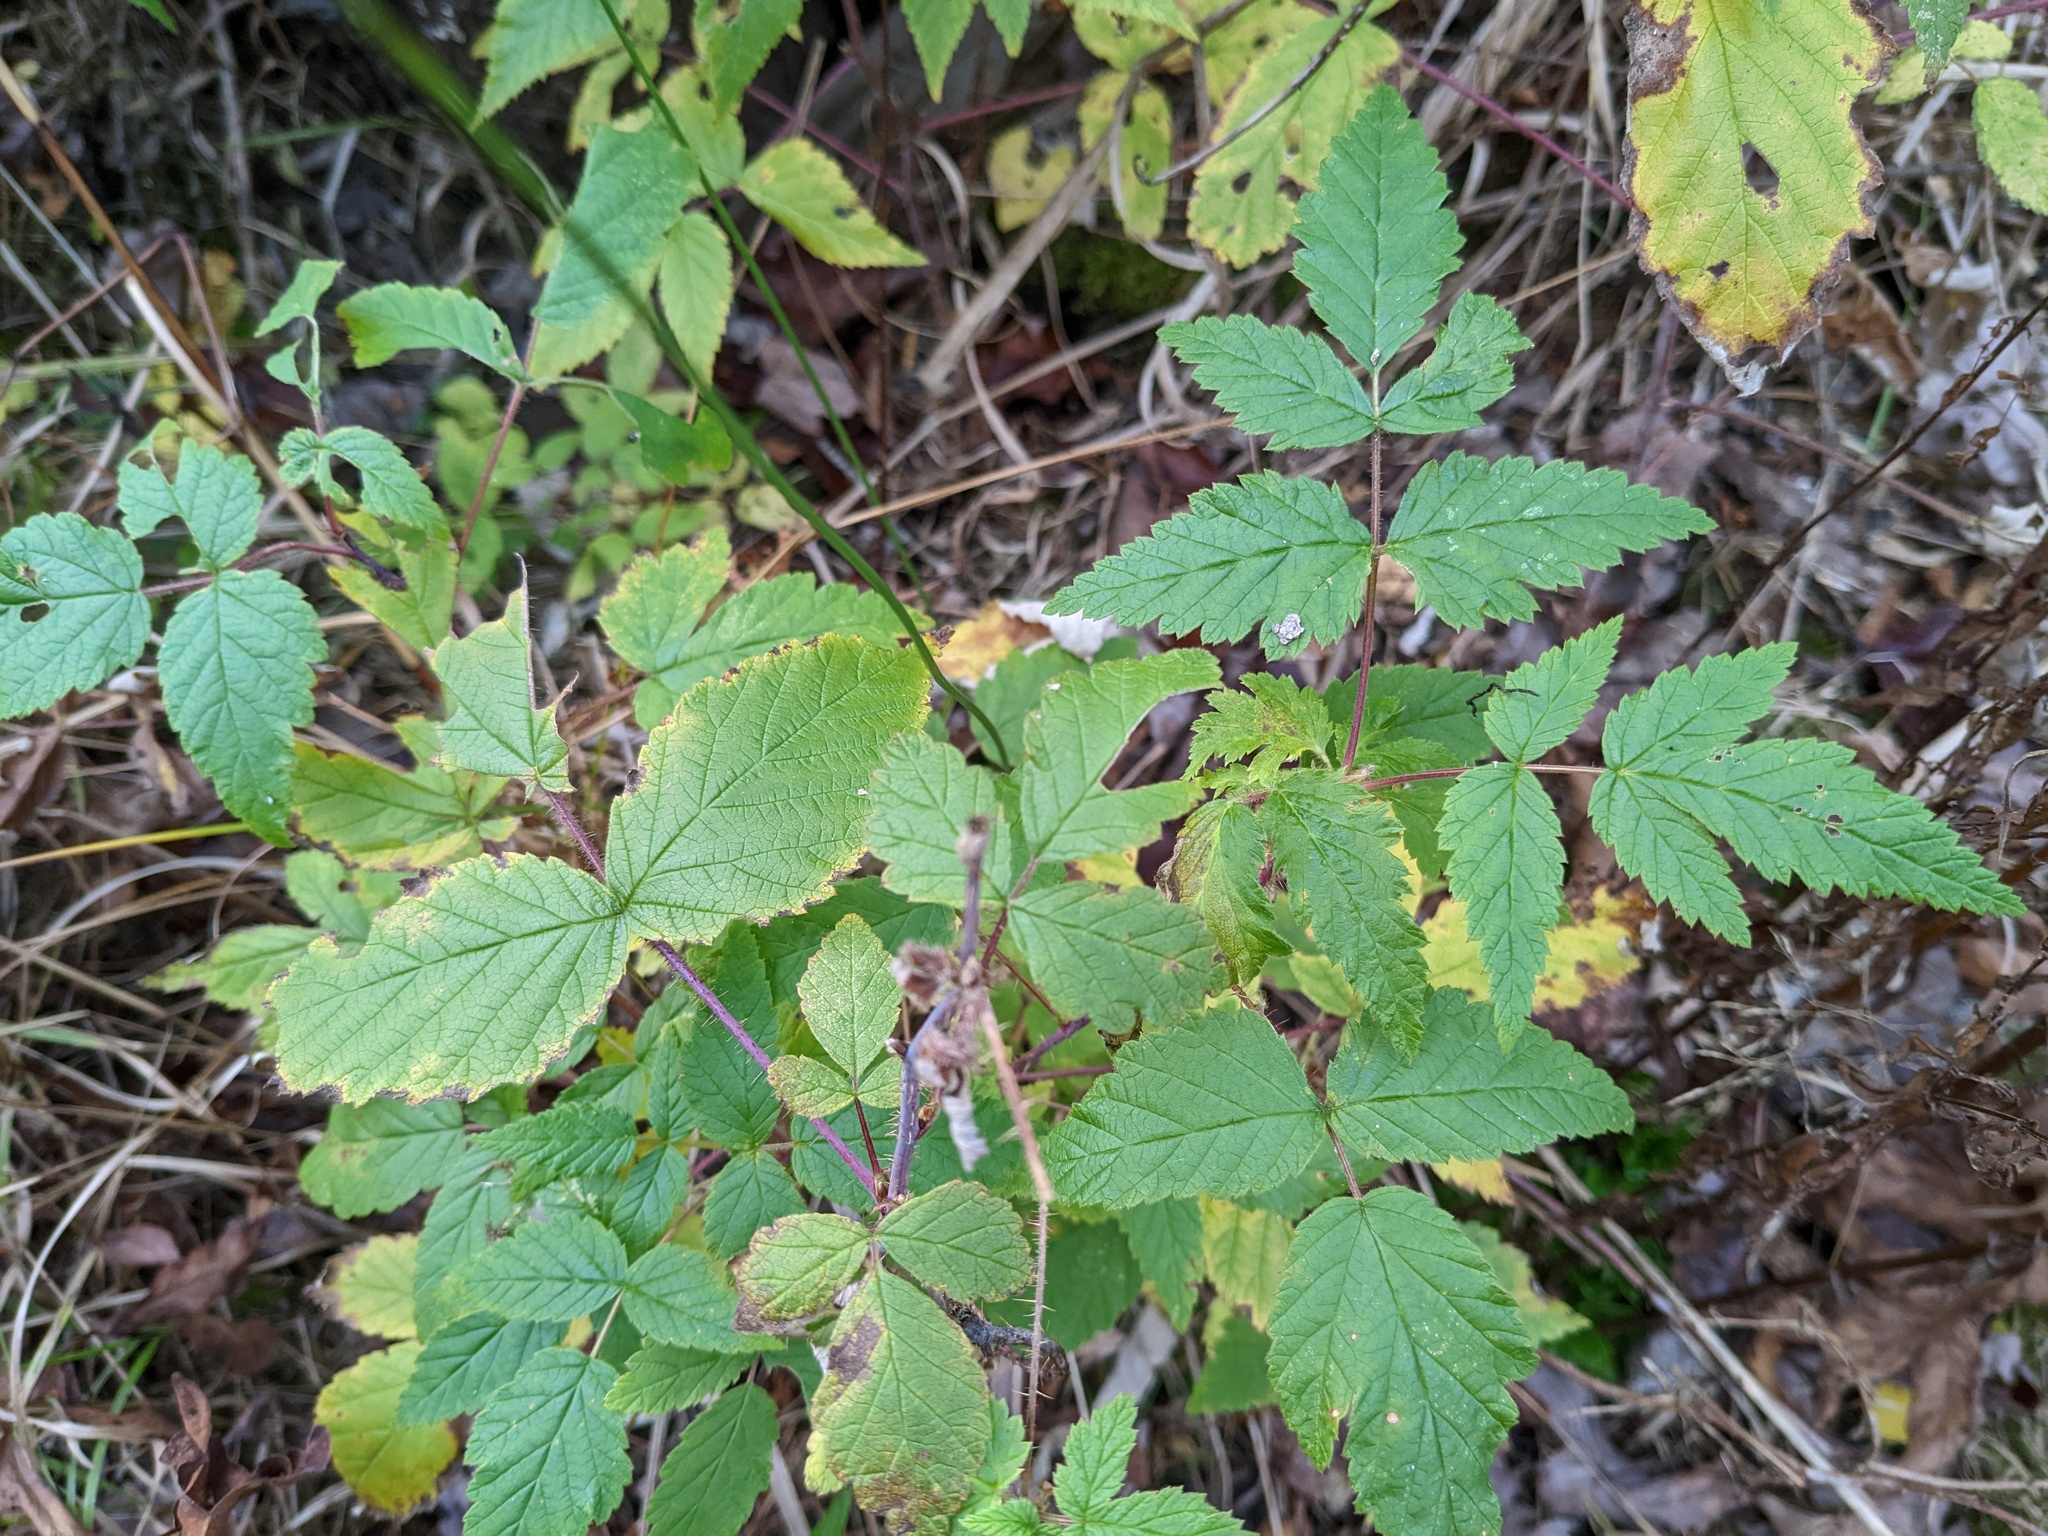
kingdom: Plantae
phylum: Tracheophyta
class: Magnoliopsida
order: Rosales
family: Rosaceae
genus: Rubus
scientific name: Rubus occidentalis
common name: Black raspberry
